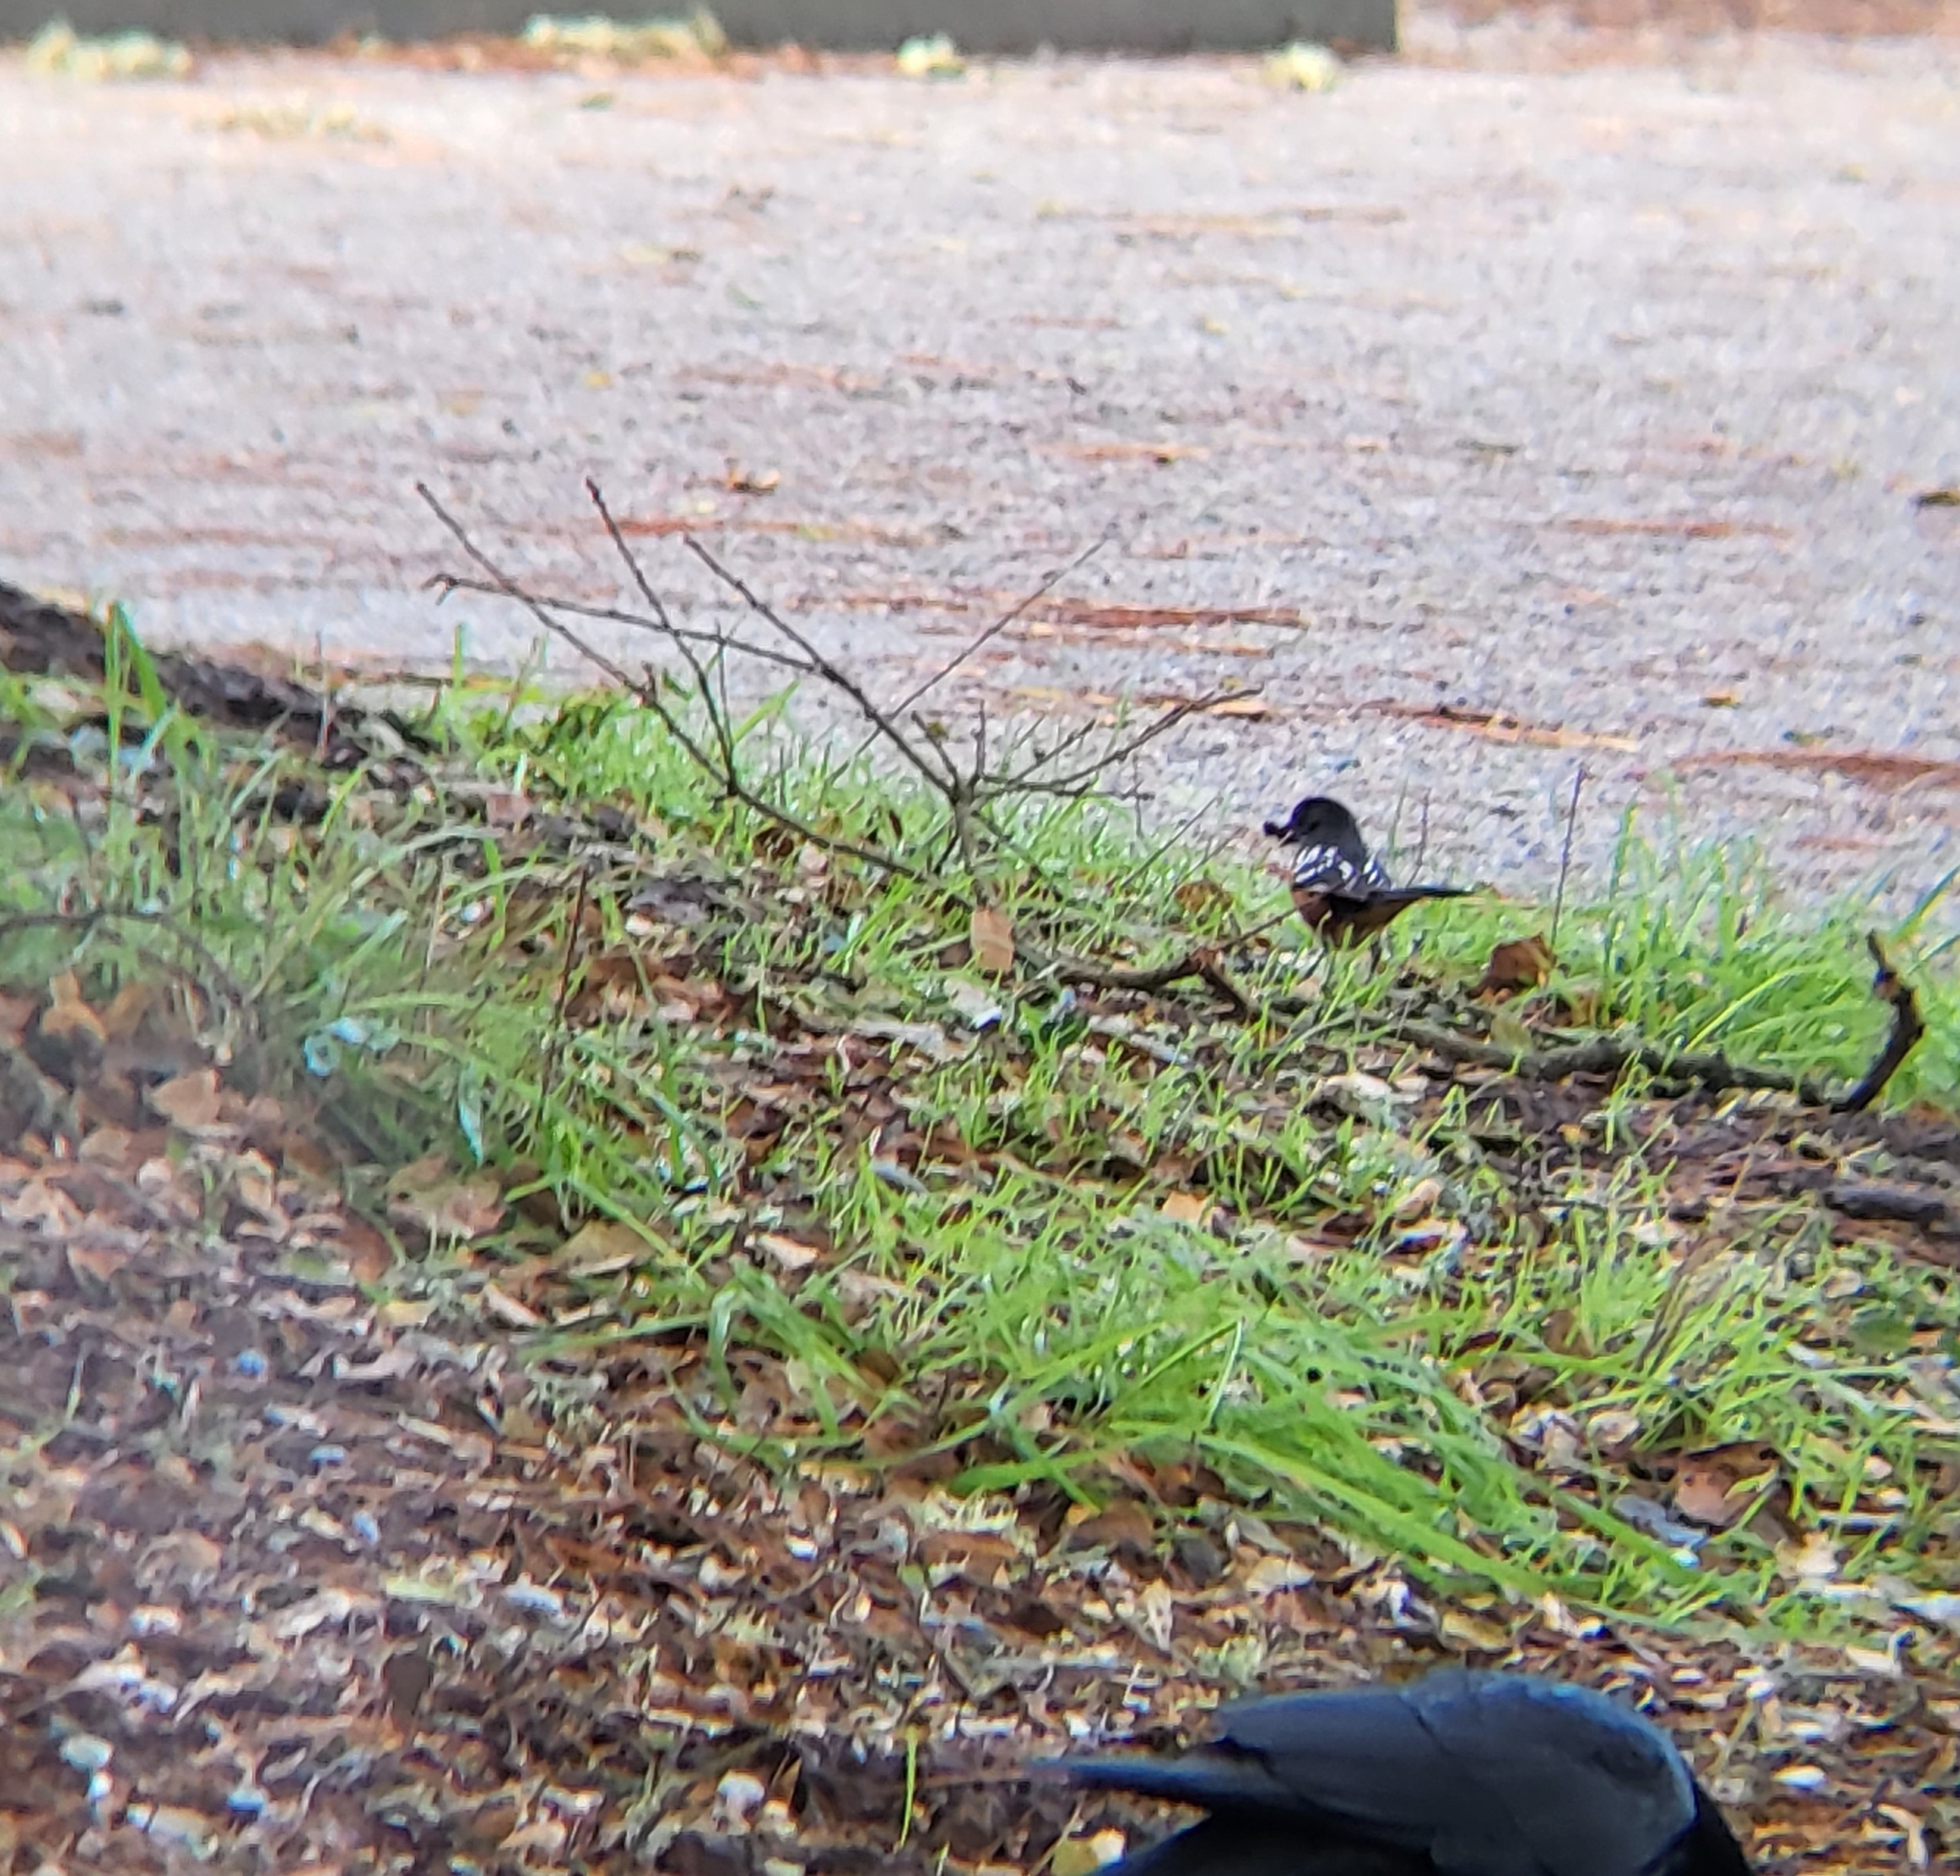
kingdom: Animalia
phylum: Chordata
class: Aves
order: Passeriformes
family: Passerellidae
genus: Pipilo
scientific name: Pipilo maculatus
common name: Spotted towhee
